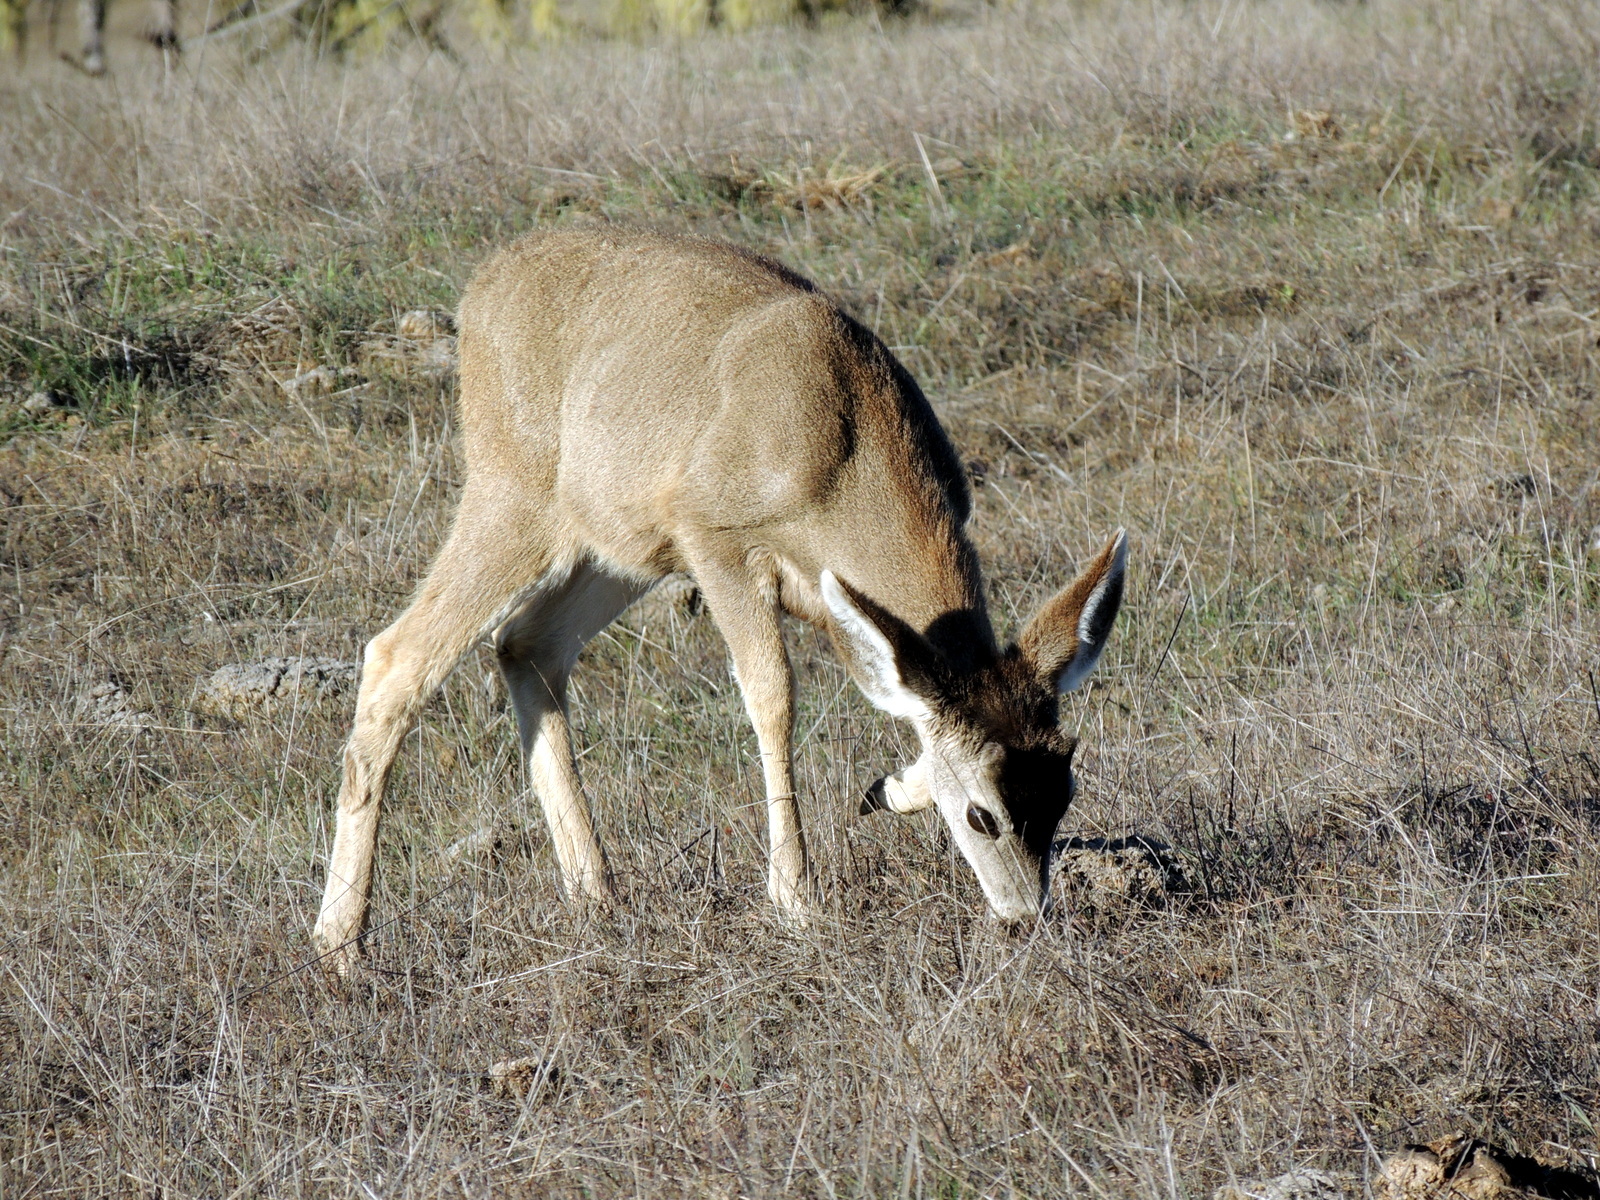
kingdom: Animalia
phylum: Chordata
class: Mammalia
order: Artiodactyla
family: Cervidae
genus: Odocoileus
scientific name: Odocoileus hemionus
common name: Mule deer
